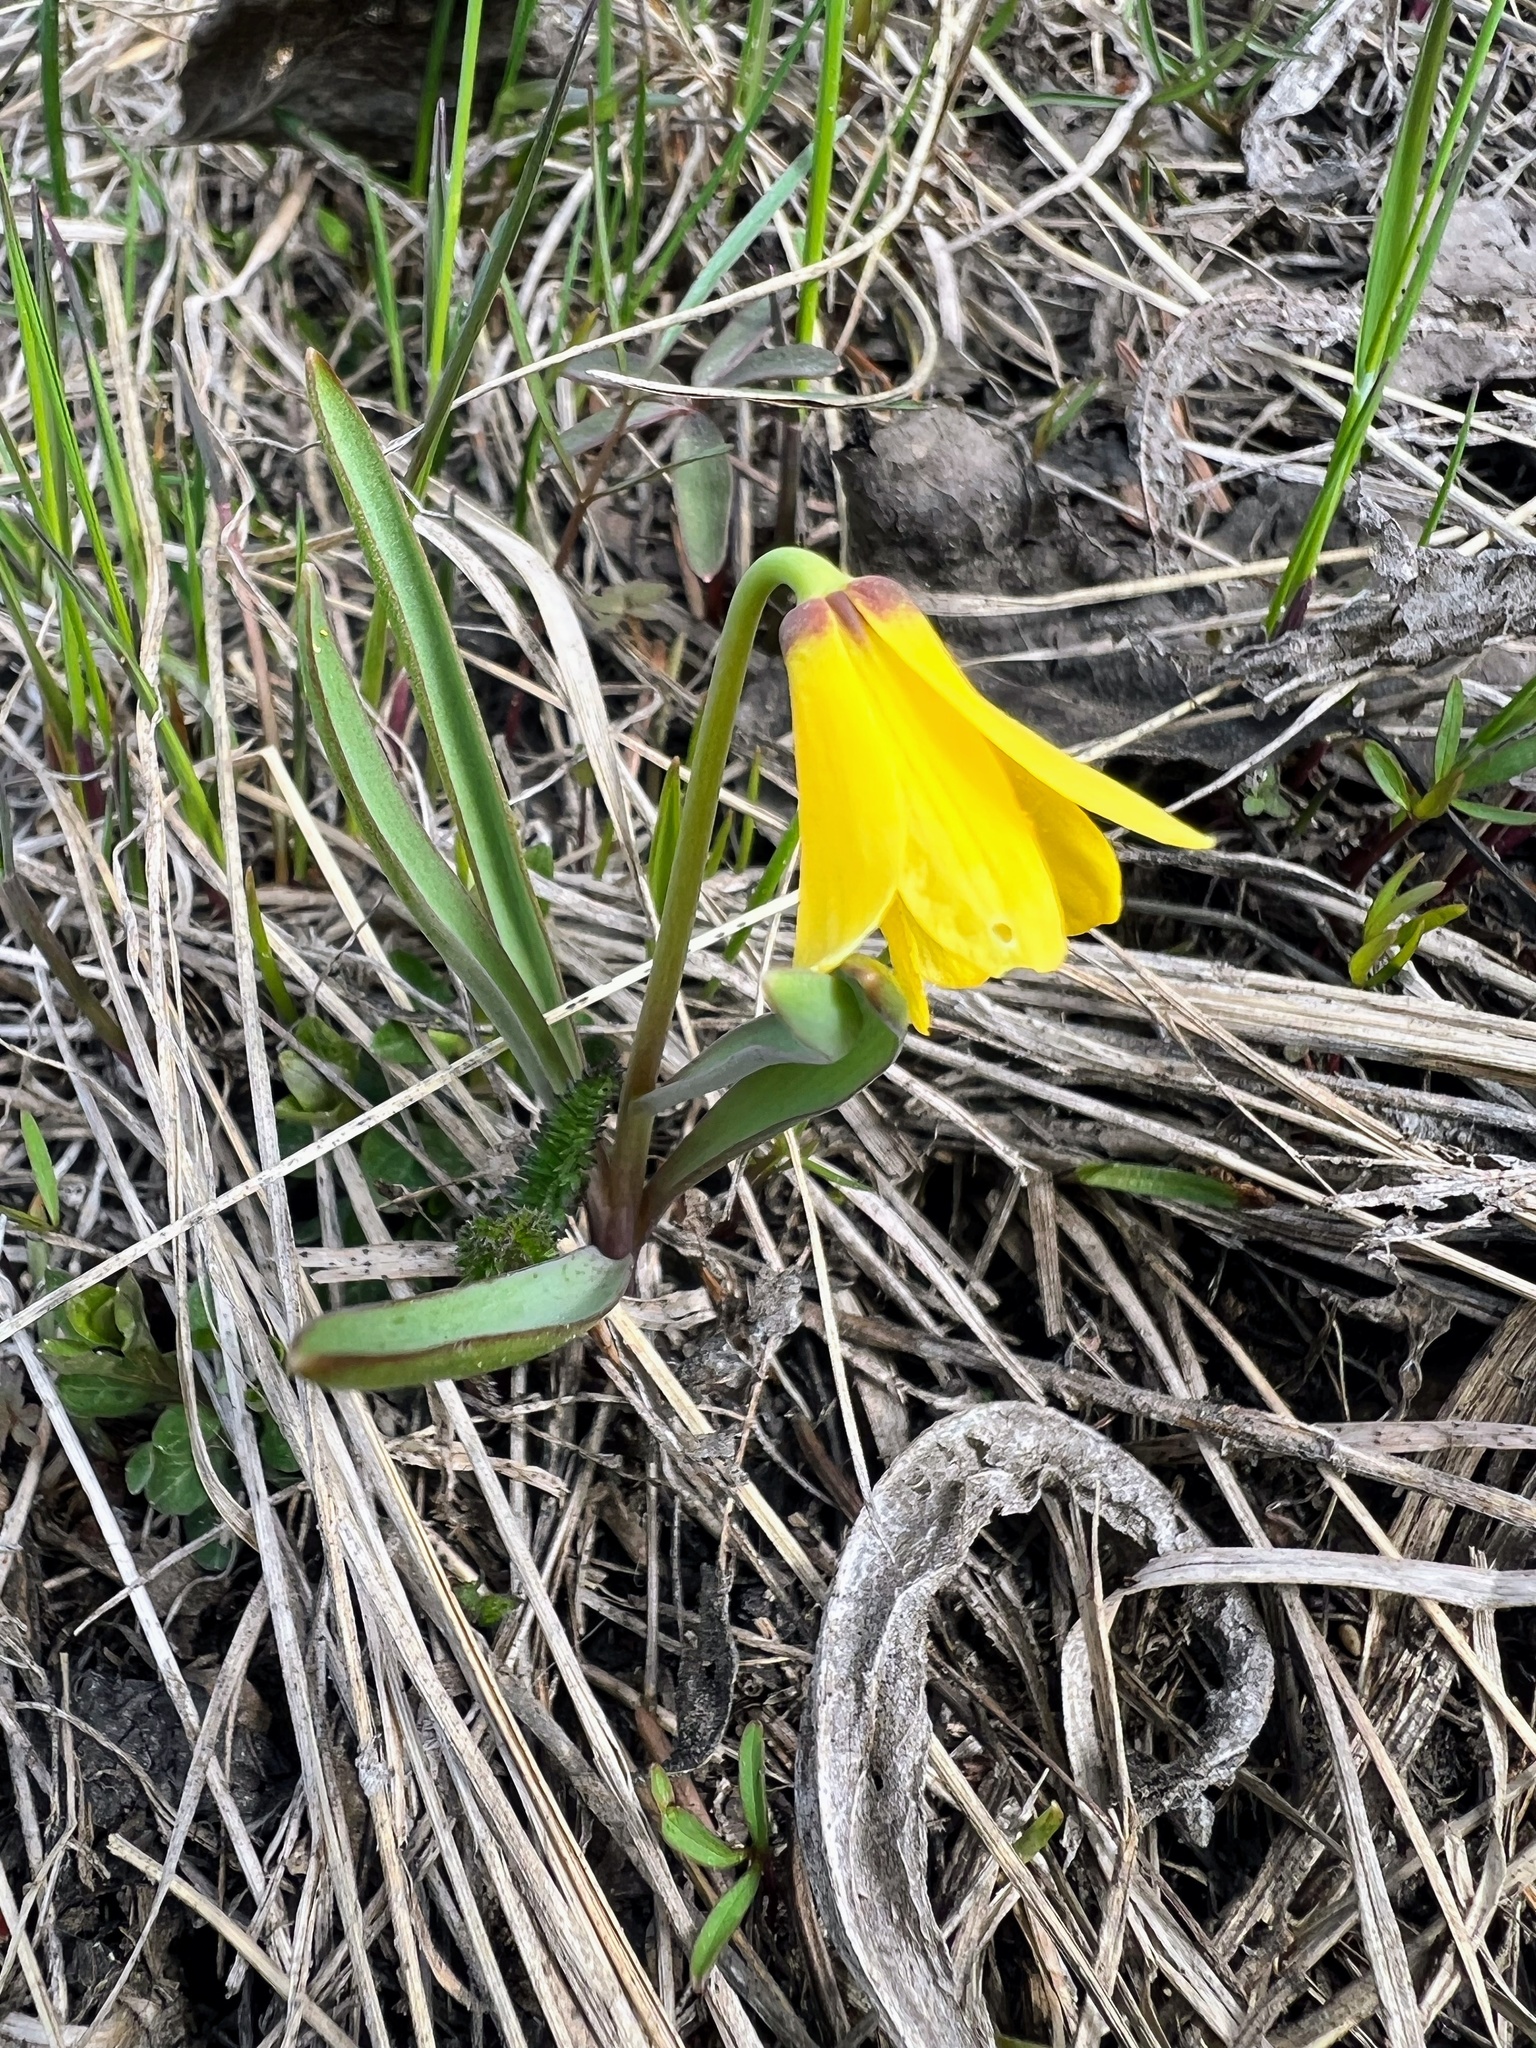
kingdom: Plantae
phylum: Tracheophyta
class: Liliopsida
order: Liliales
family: Liliaceae
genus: Fritillaria
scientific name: Fritillaria pudica
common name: Yellow fritillary
